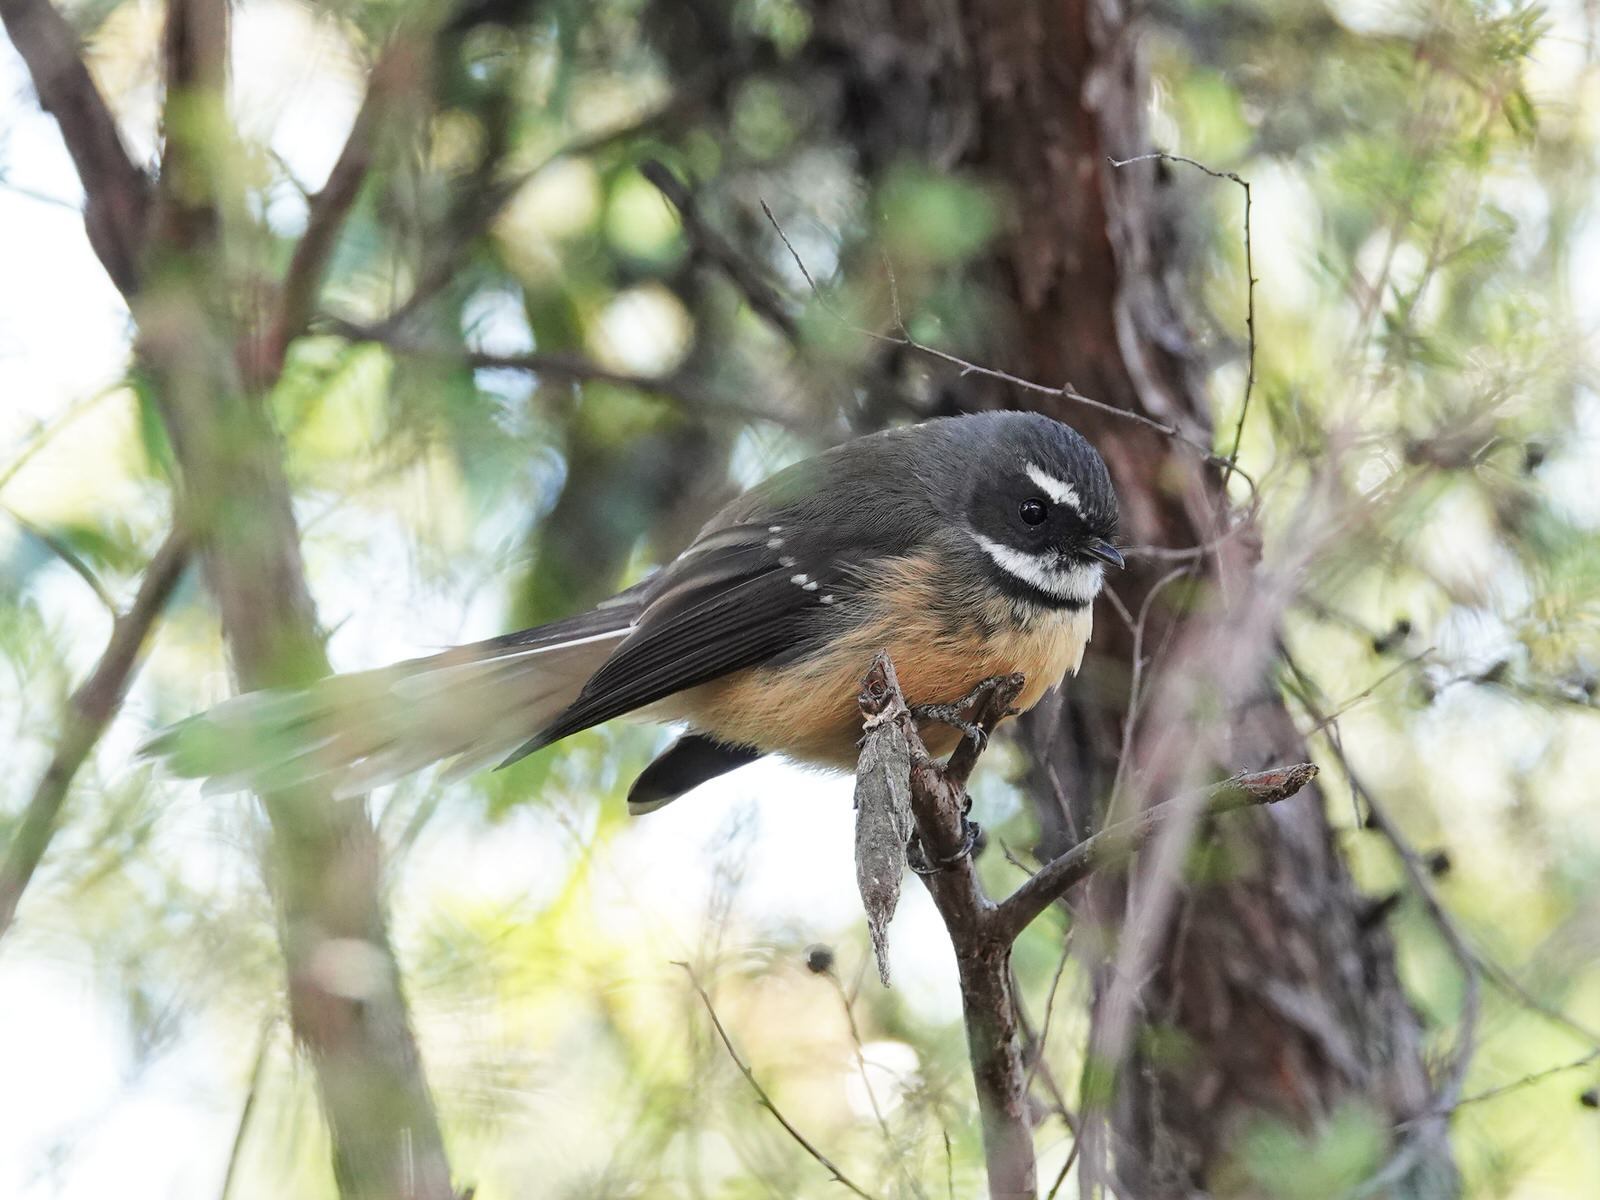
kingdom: Animalia
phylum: Chordata
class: Aves
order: Passeriformes
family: Rhipiduridae
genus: Rhipidura
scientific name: Rhipidura fuliginosa
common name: New zealand fantail
